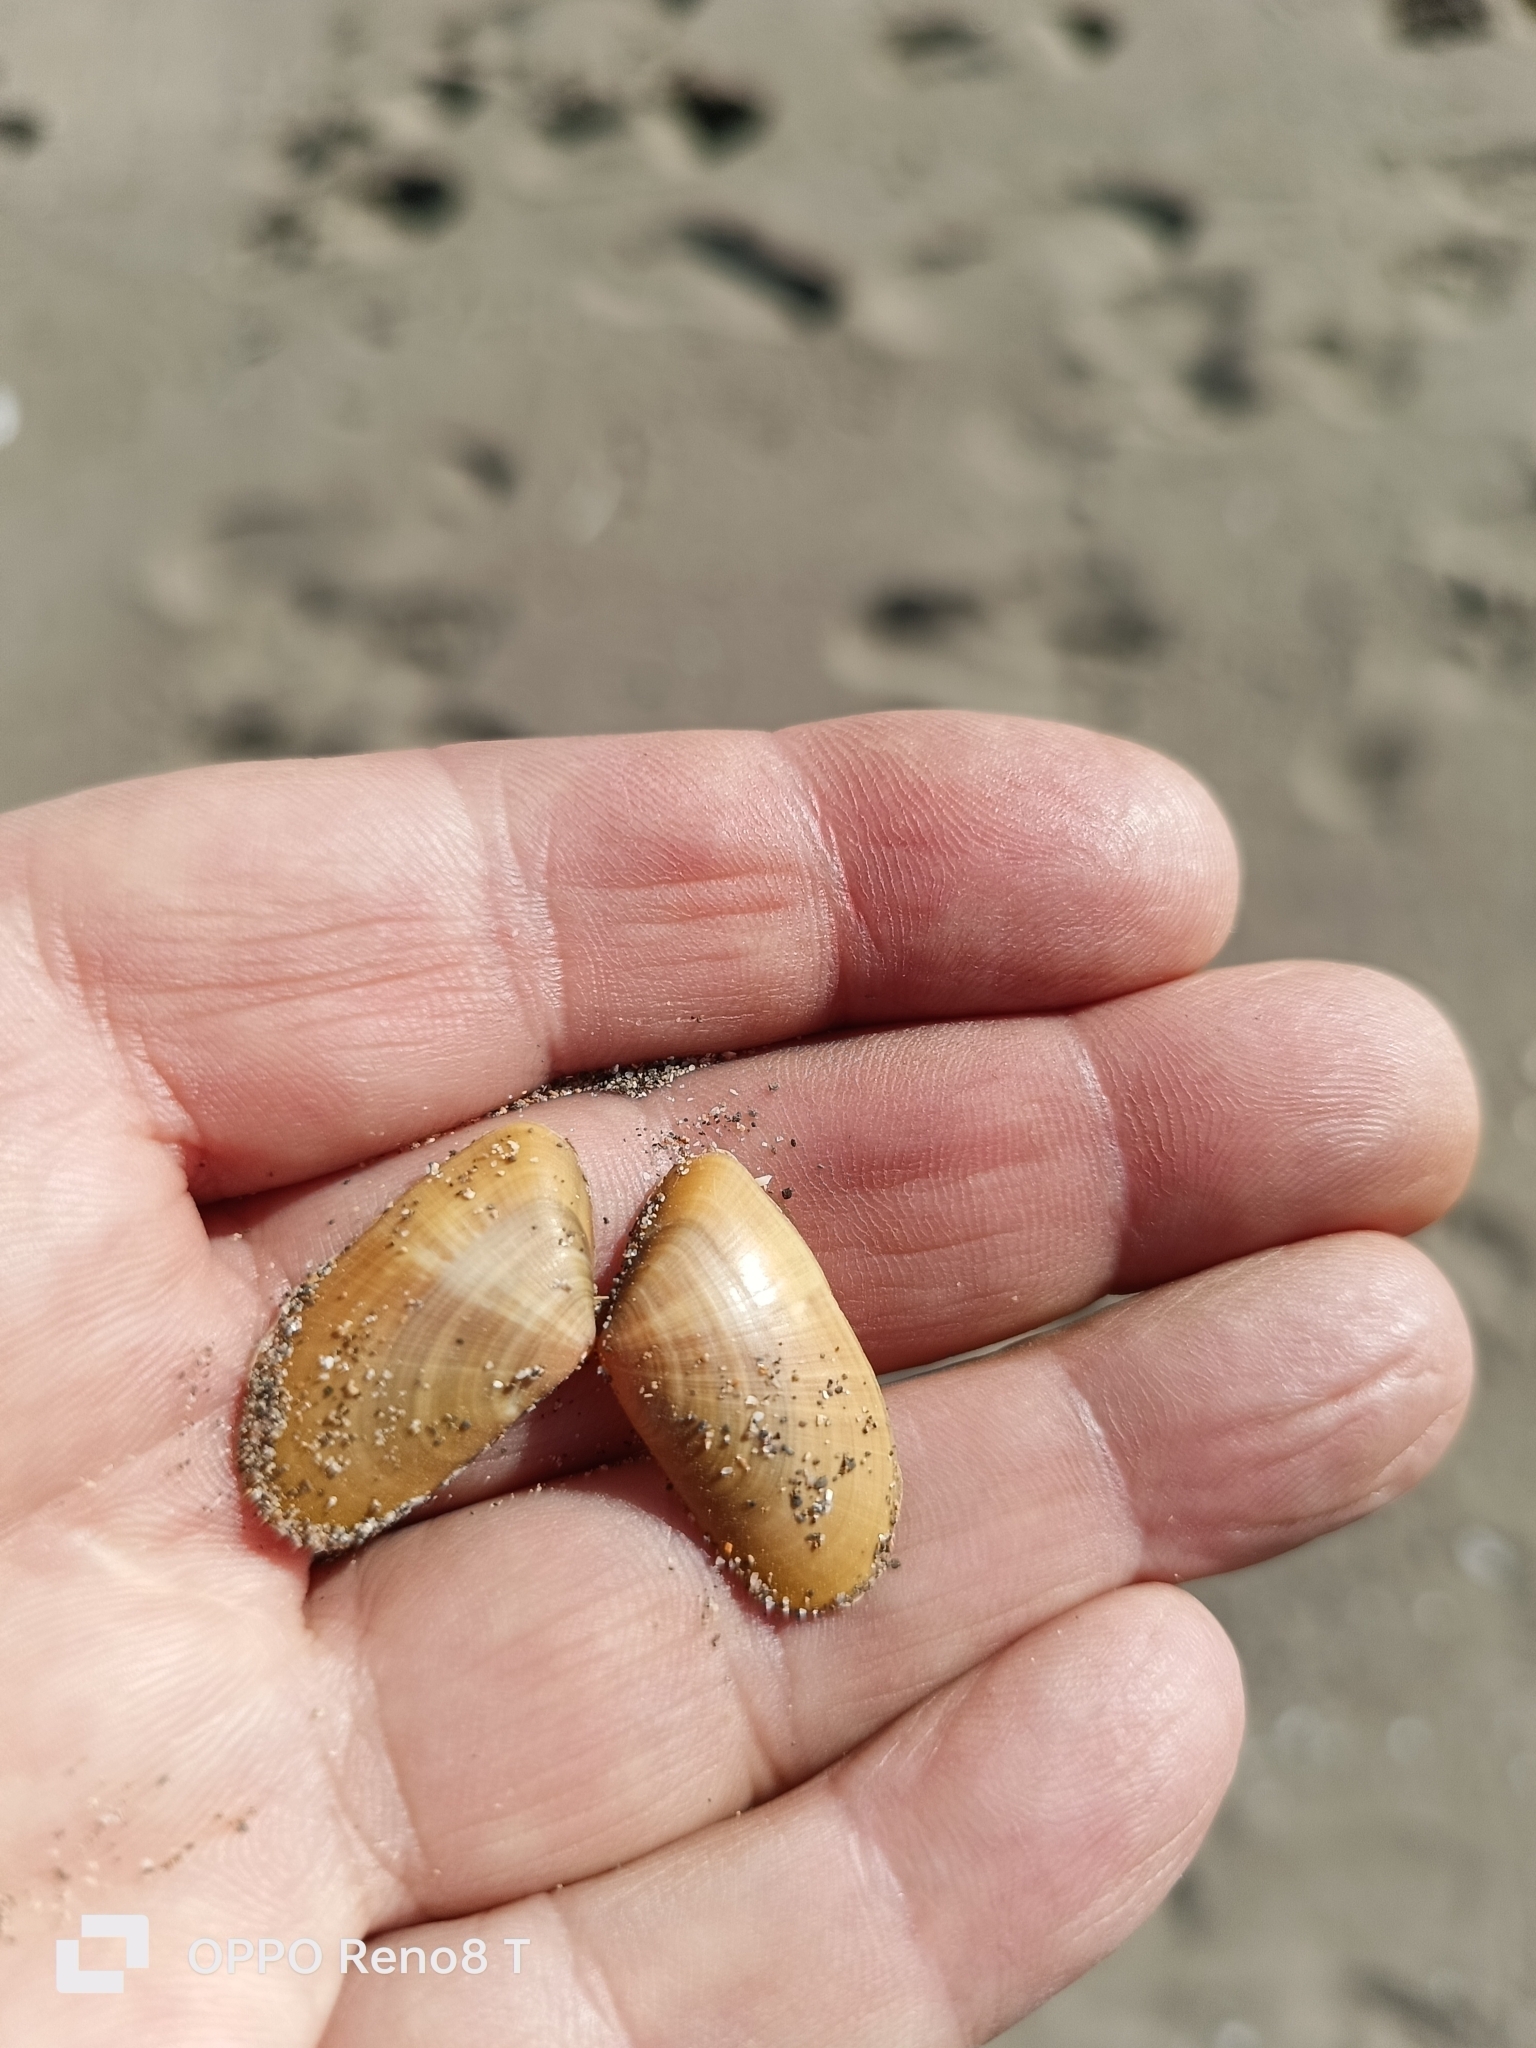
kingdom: Animalia
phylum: Mollusca
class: Bivalvia
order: Cardiida
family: Donacidae
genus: Donax
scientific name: Donax vittatus
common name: Banded wedge-shell
